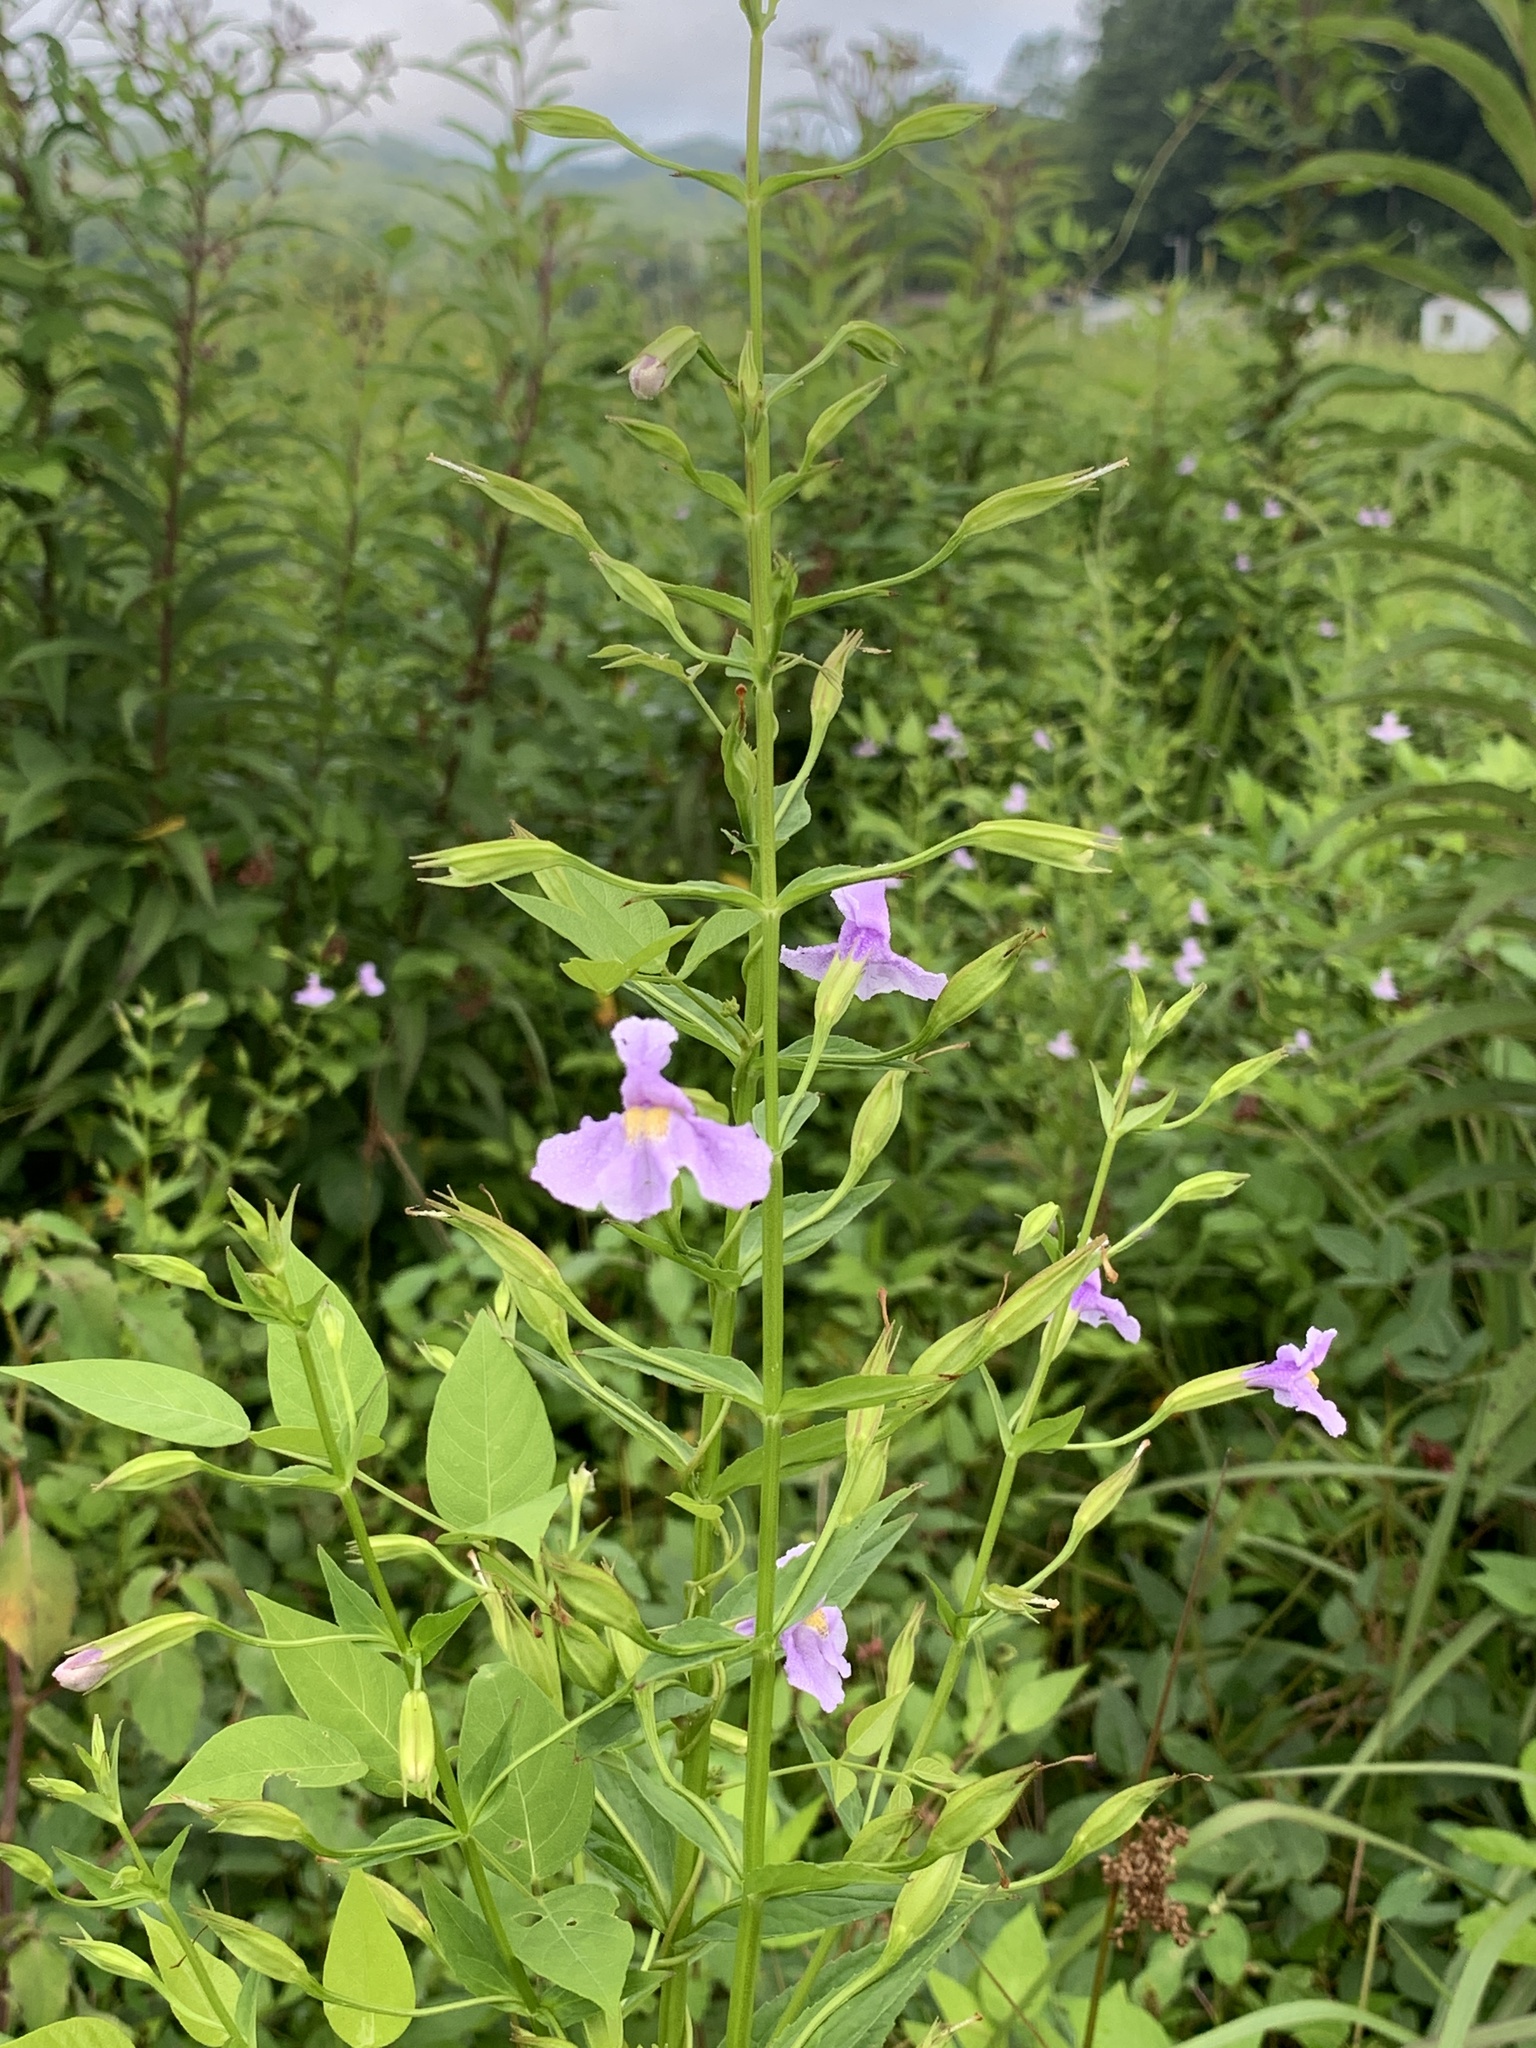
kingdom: Plantae
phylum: Tracheophyta
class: Magnoliopsida
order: Lamiales
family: Phrymaceae
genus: Mimulus
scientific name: Mimulus ringens
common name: Allegheny monkeyflower
